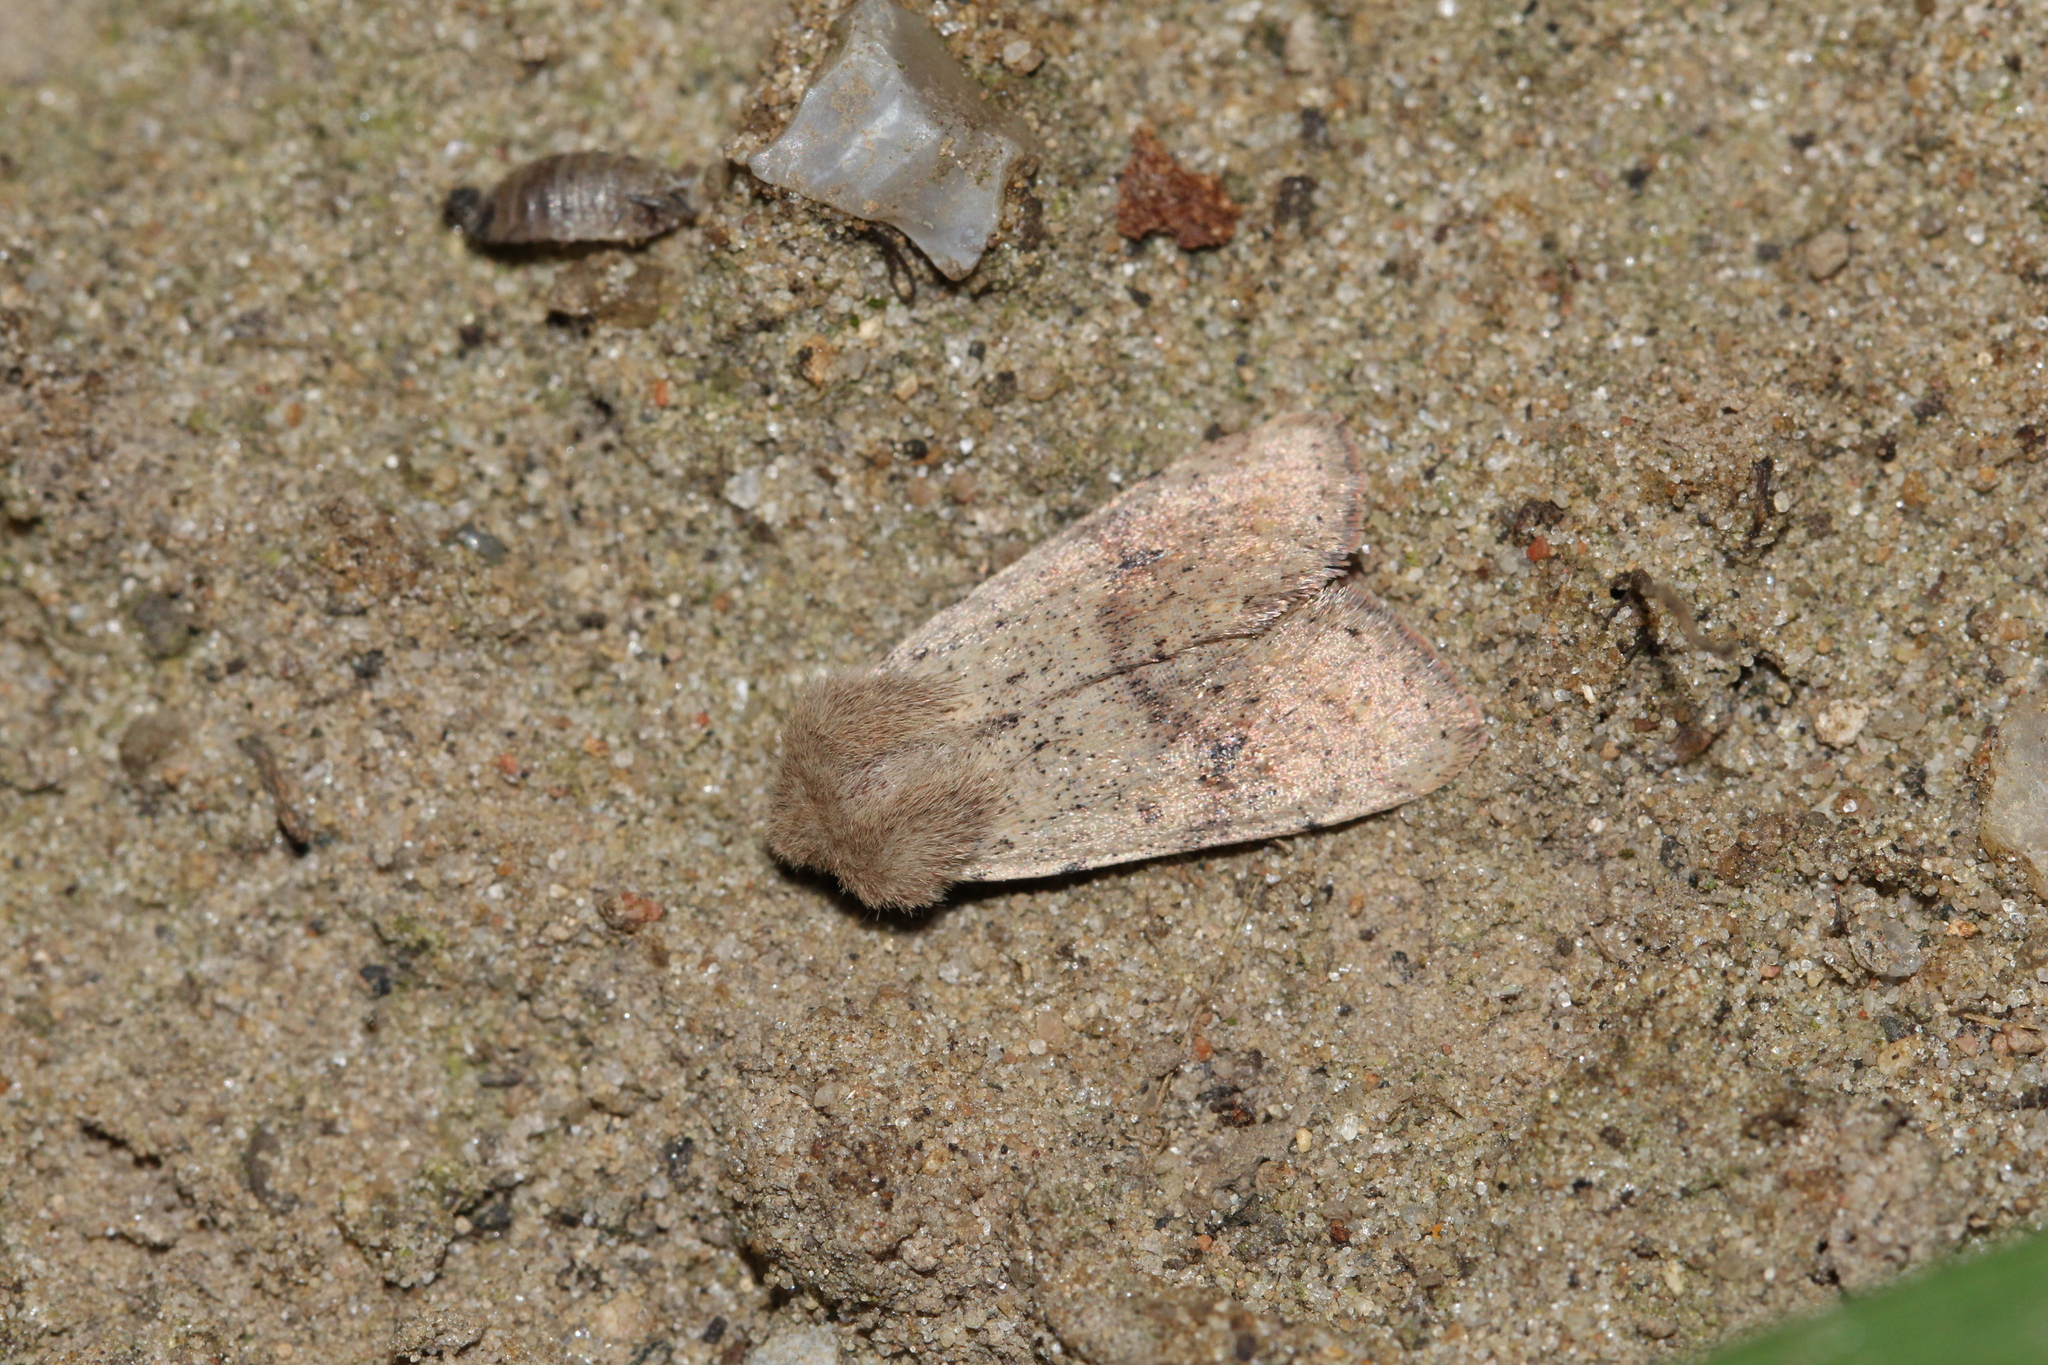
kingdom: Animalia
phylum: Arthropoda
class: Insecta
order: Lepidoptera
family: Noctuidae
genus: Orthosia
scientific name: Orthosia cruda
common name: Small quaker
